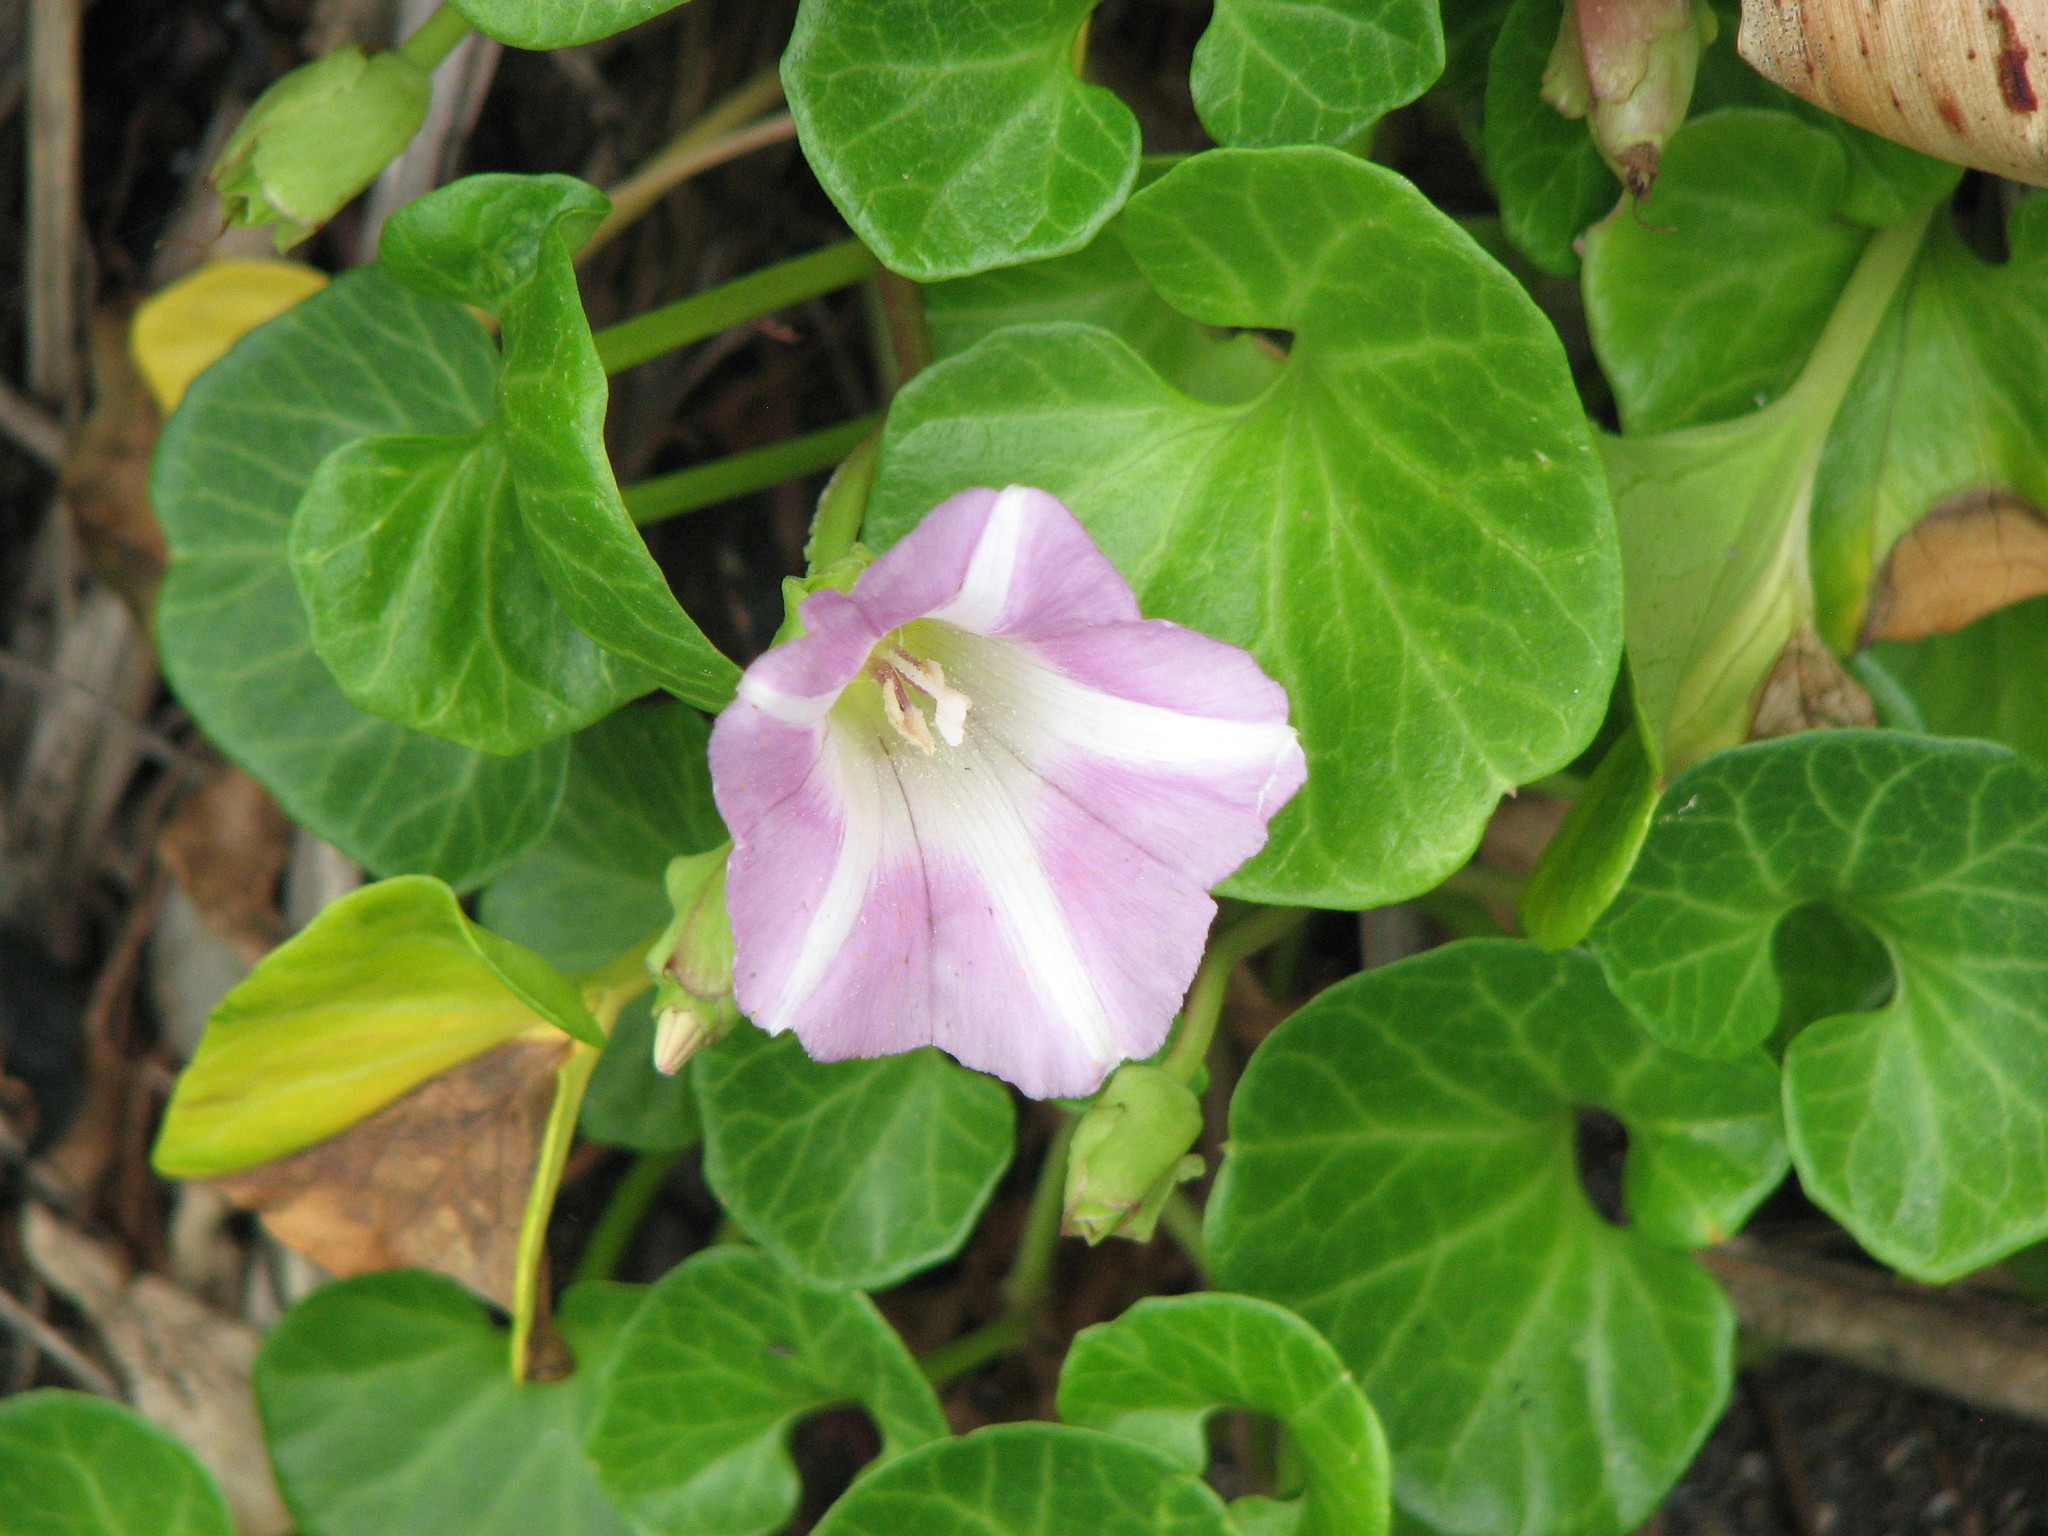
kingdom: Plantae
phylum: Tracheophyta
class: Magnoliopsida
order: Solanales
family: Convolvulaceae
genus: Calystegia
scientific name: Calystegia soldanella
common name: Sea bindweed
